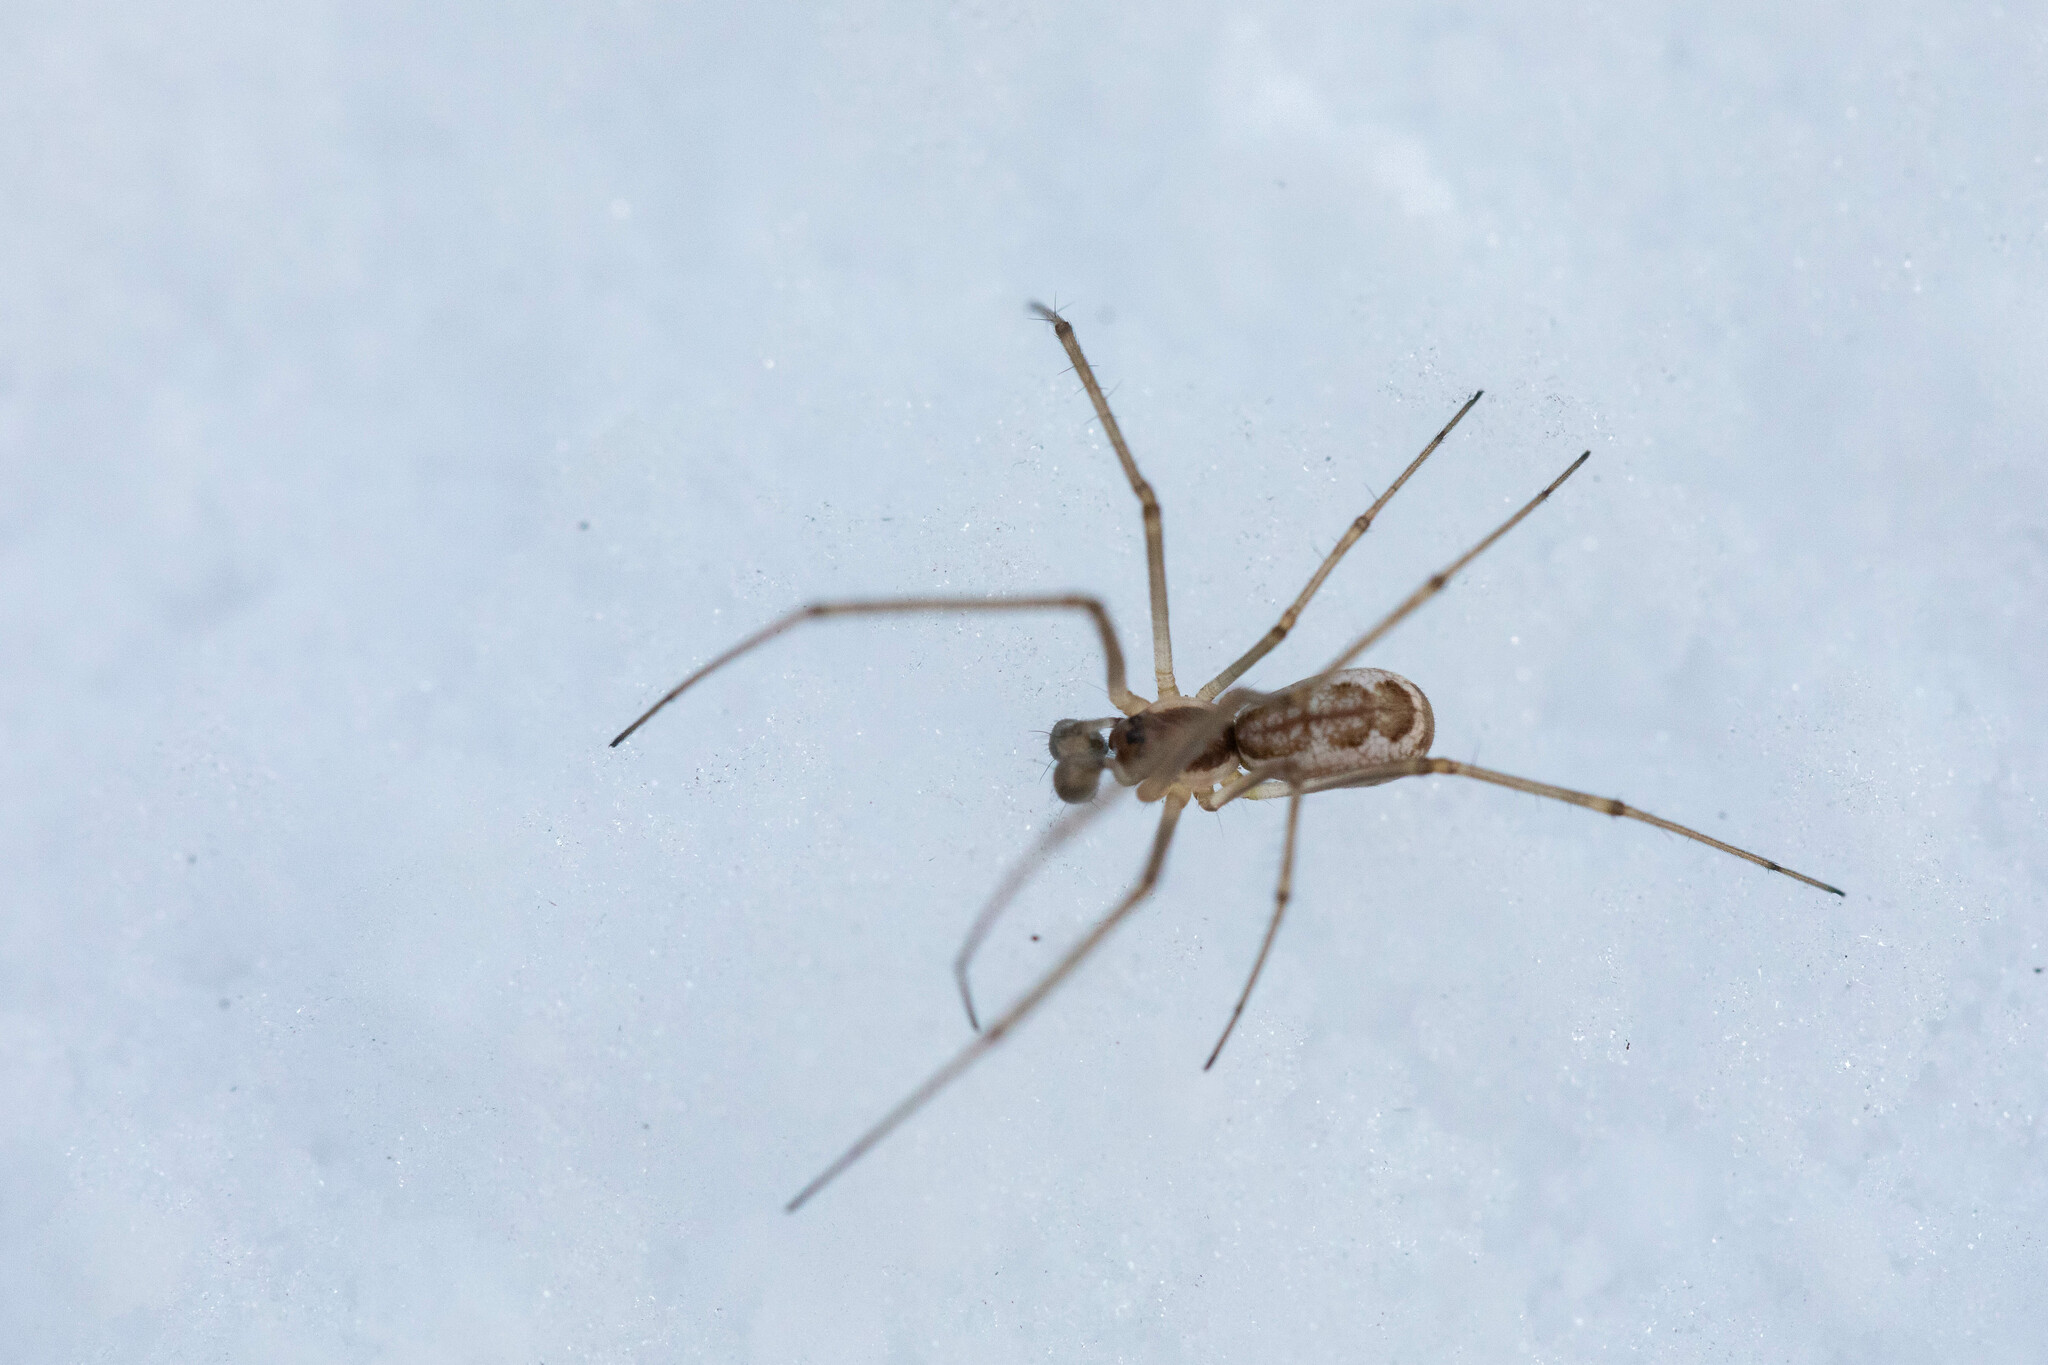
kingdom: Animalia
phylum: Arthropoda
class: Arachnida
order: Araneae
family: Linyphiidae
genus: Neriene
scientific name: Neriene radiata
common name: Filmy dome spider
